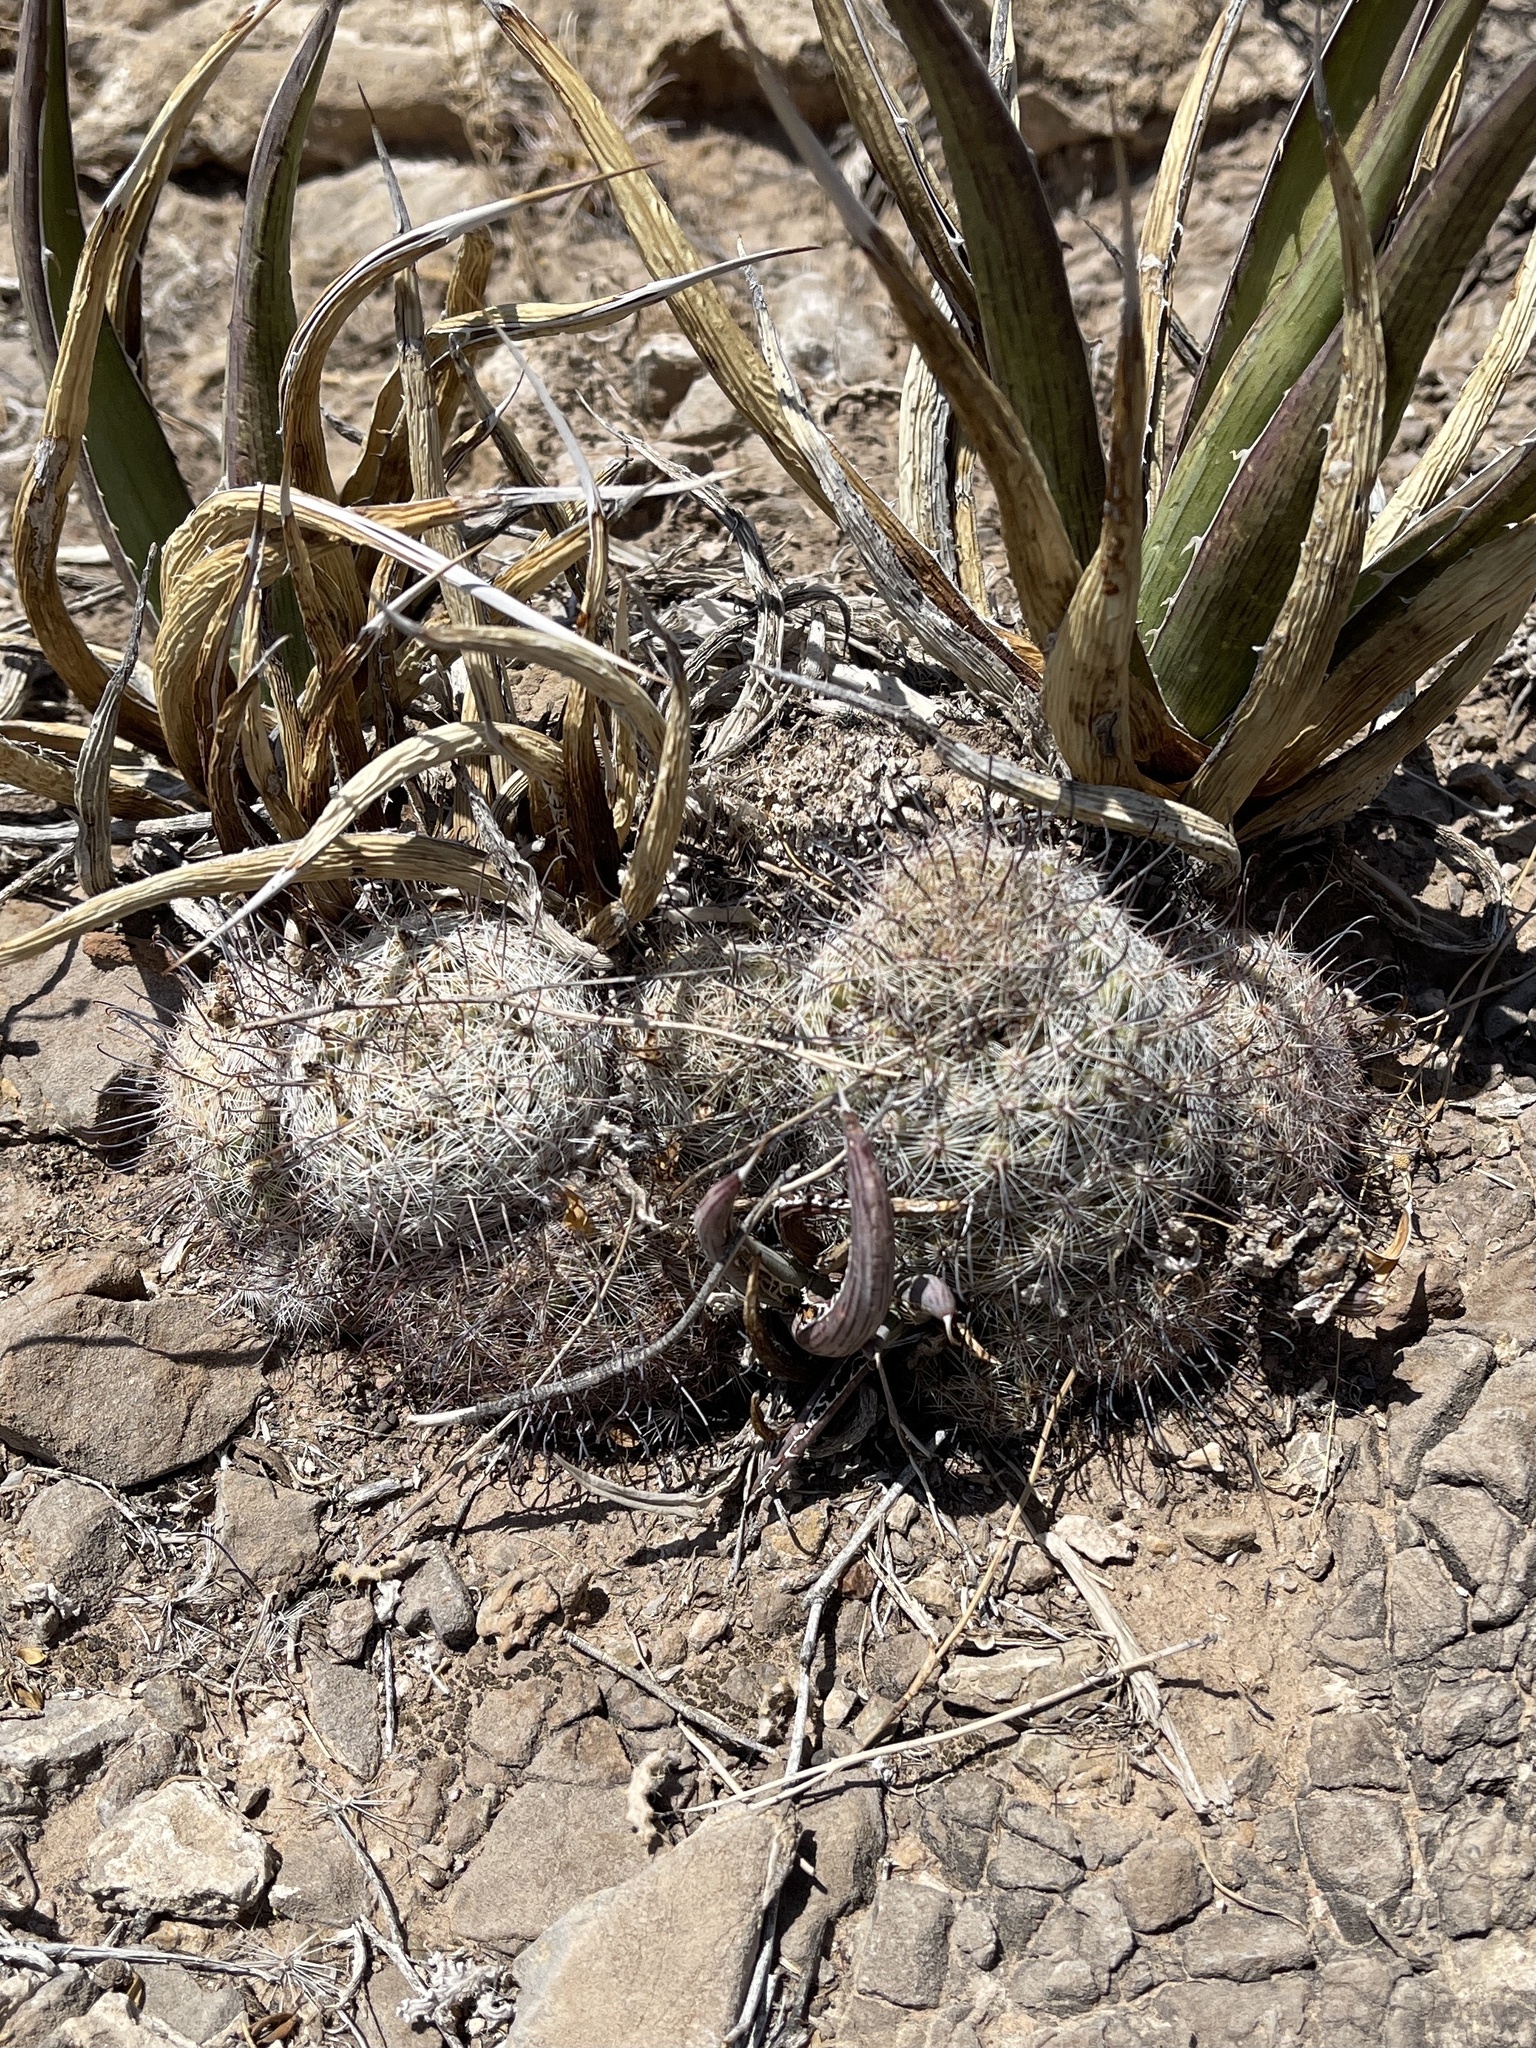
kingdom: Plantae
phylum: Tracheophyta
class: Magnoliopsida
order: Caryophyllales
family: Cactaceae
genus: Cochemiea
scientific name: Cochemiea grahamii
